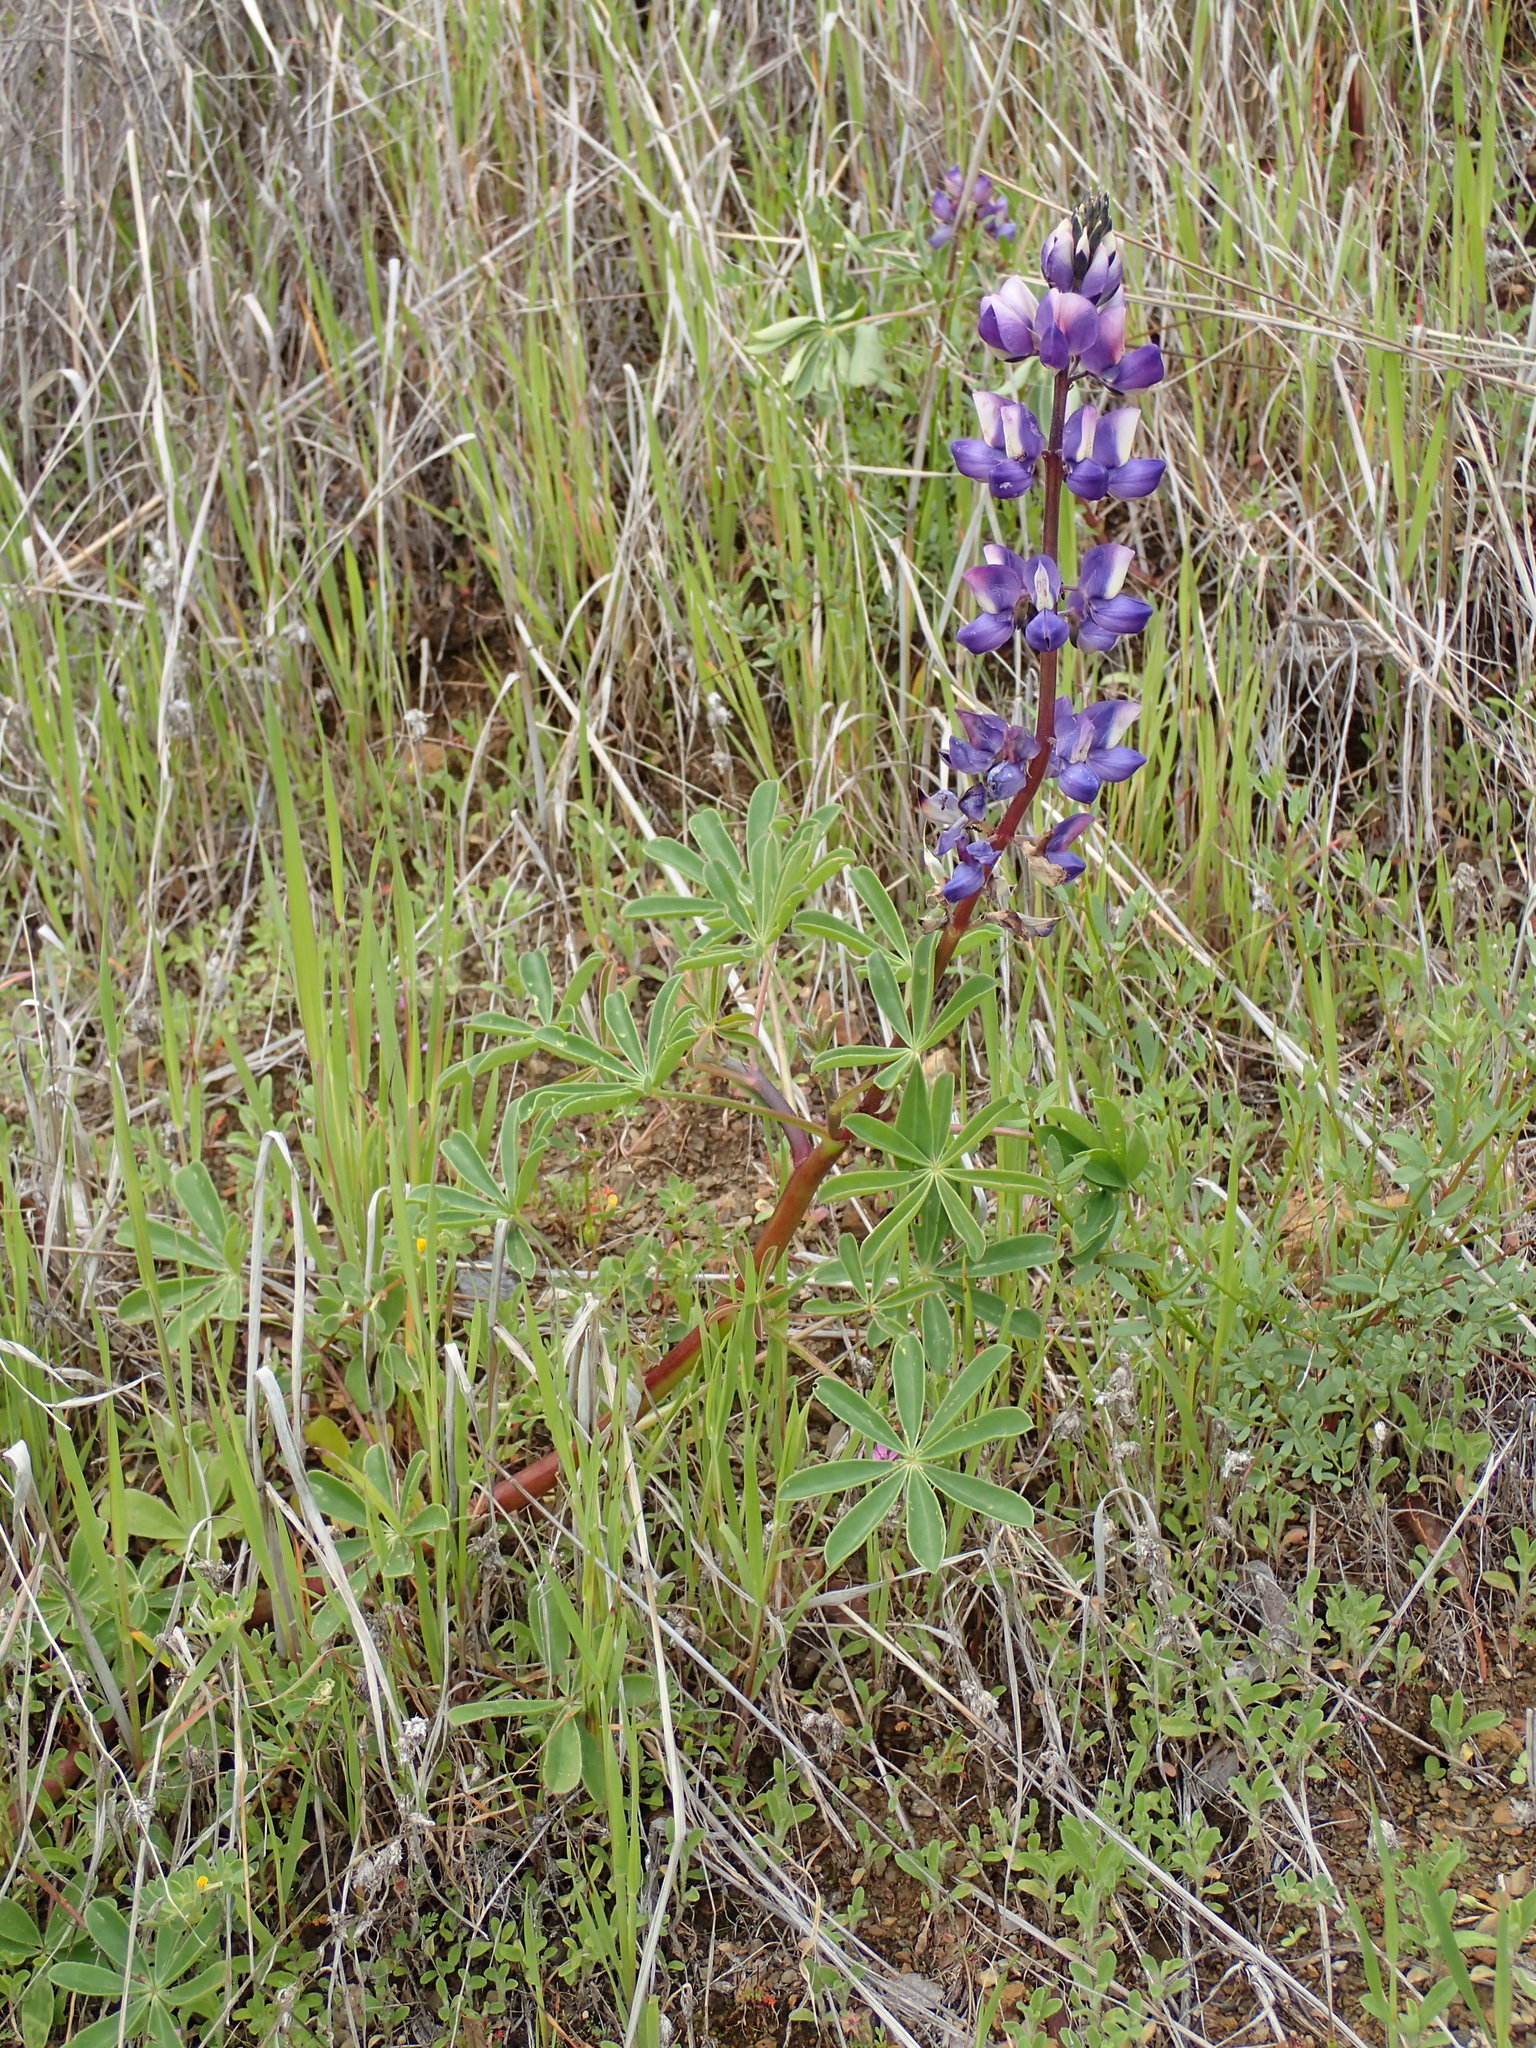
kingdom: Plantae
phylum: Tracheophyta
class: Magnoliopsida
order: Fabales
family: Fabaceae
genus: Lupinus
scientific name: Lupinus succulentus
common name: Arroyo lupine
